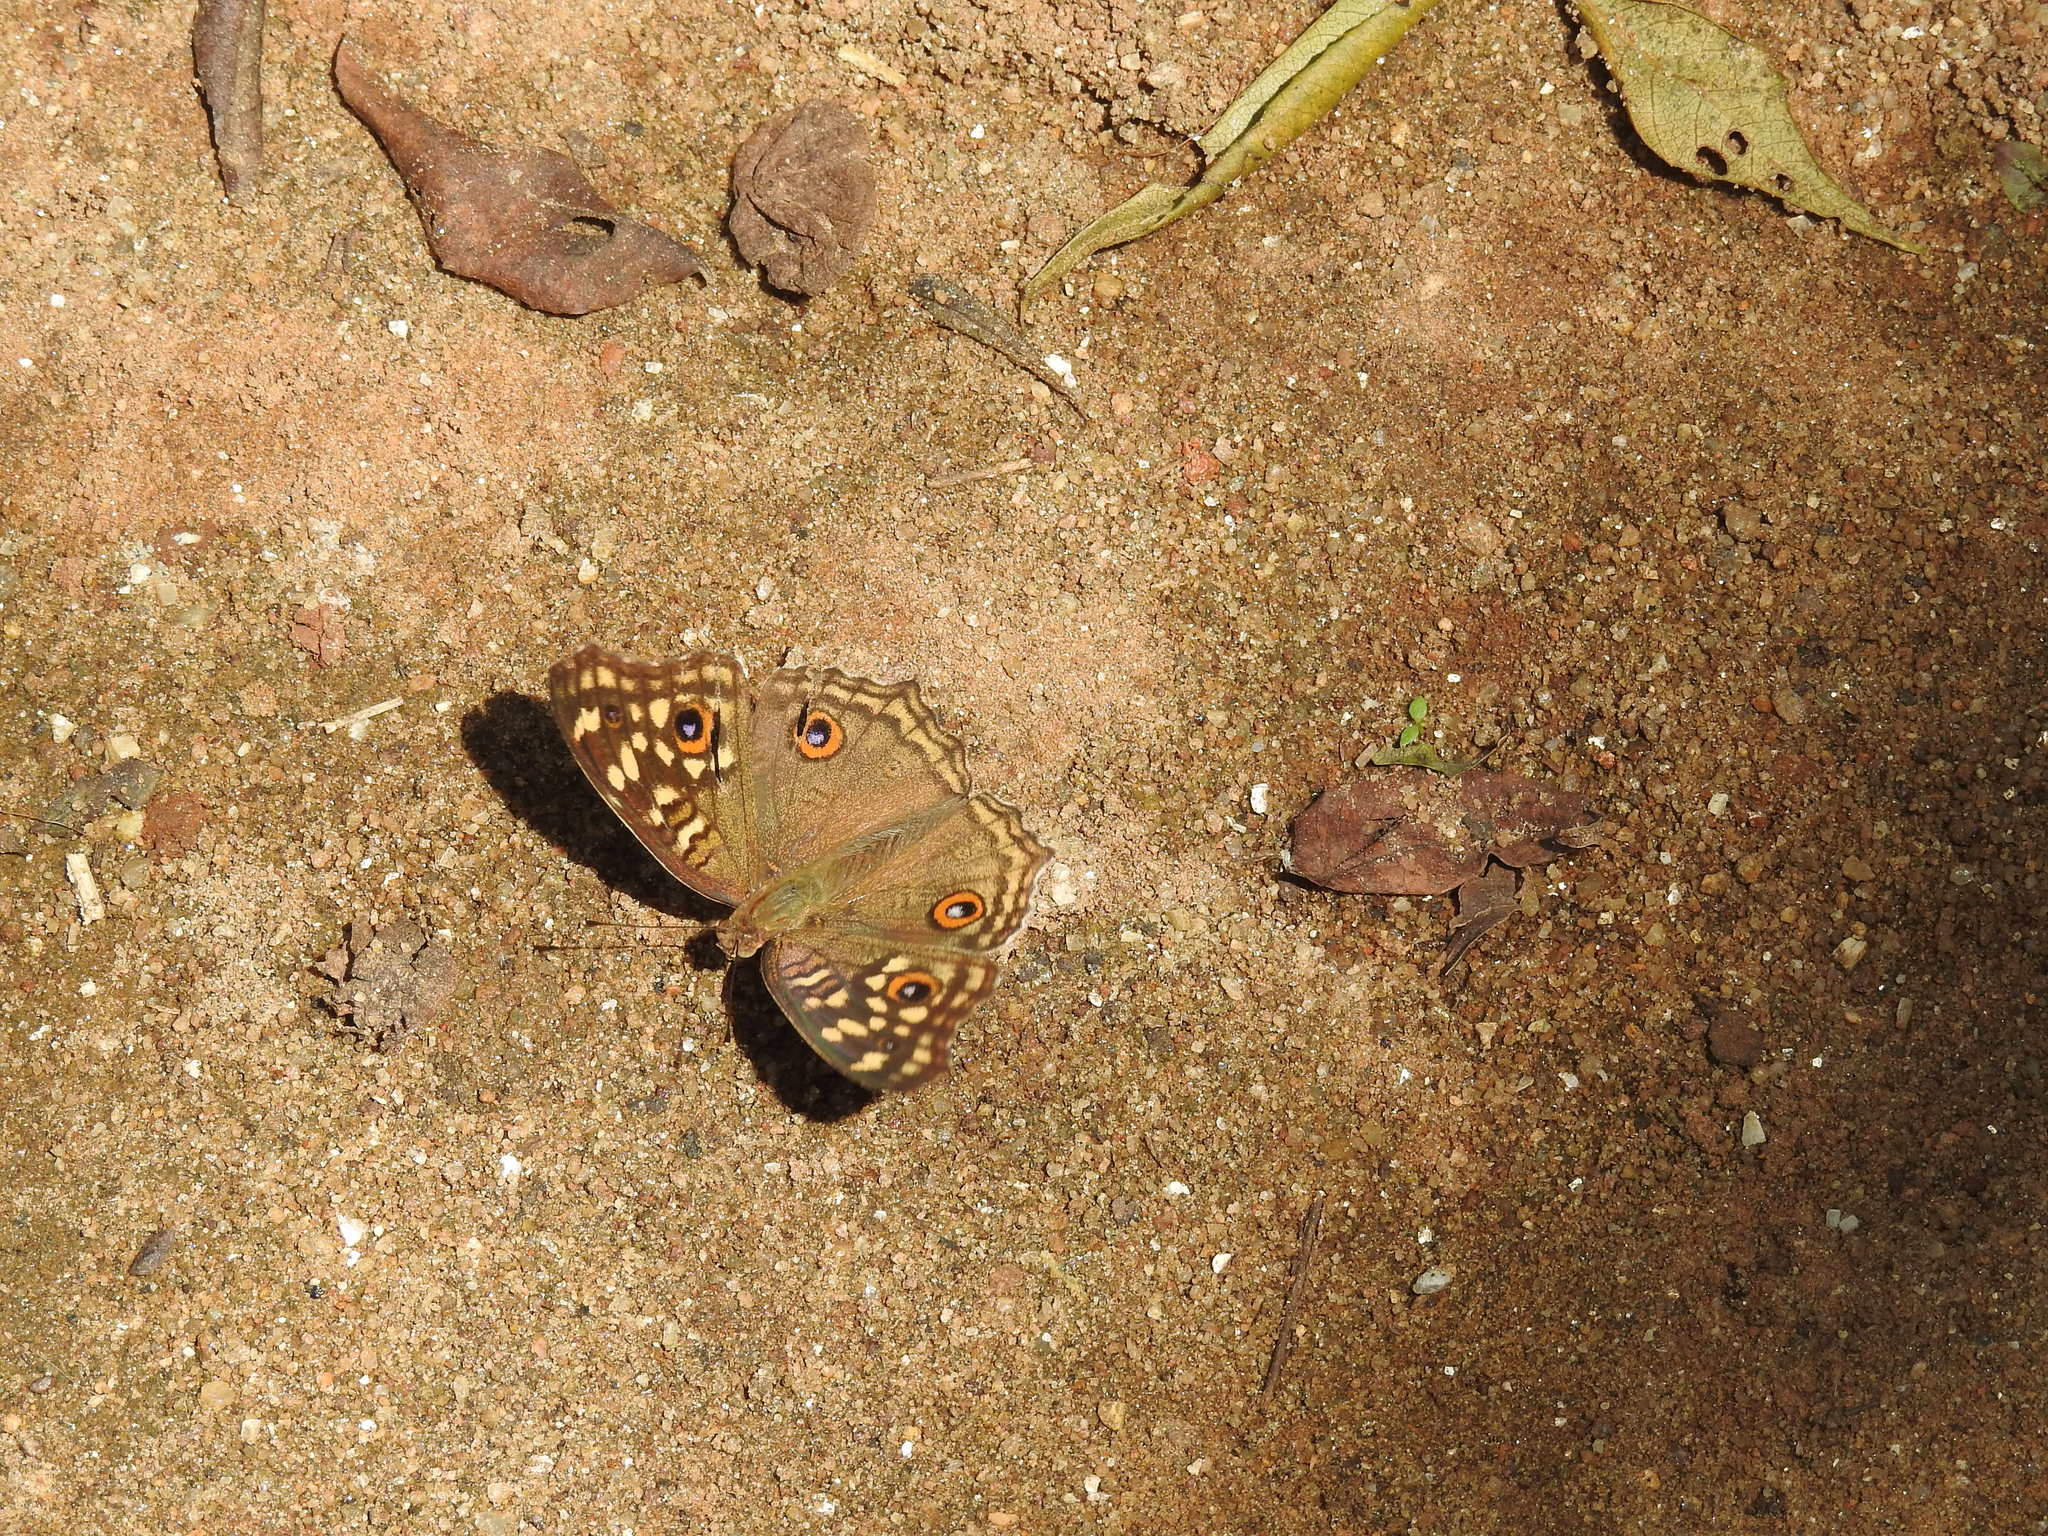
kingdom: Animalia
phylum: Arthropoda
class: Insecta
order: Lepidoptera
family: Nymphalidae
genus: Junonia
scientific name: Junonia lemonias
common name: Lemon pansy
